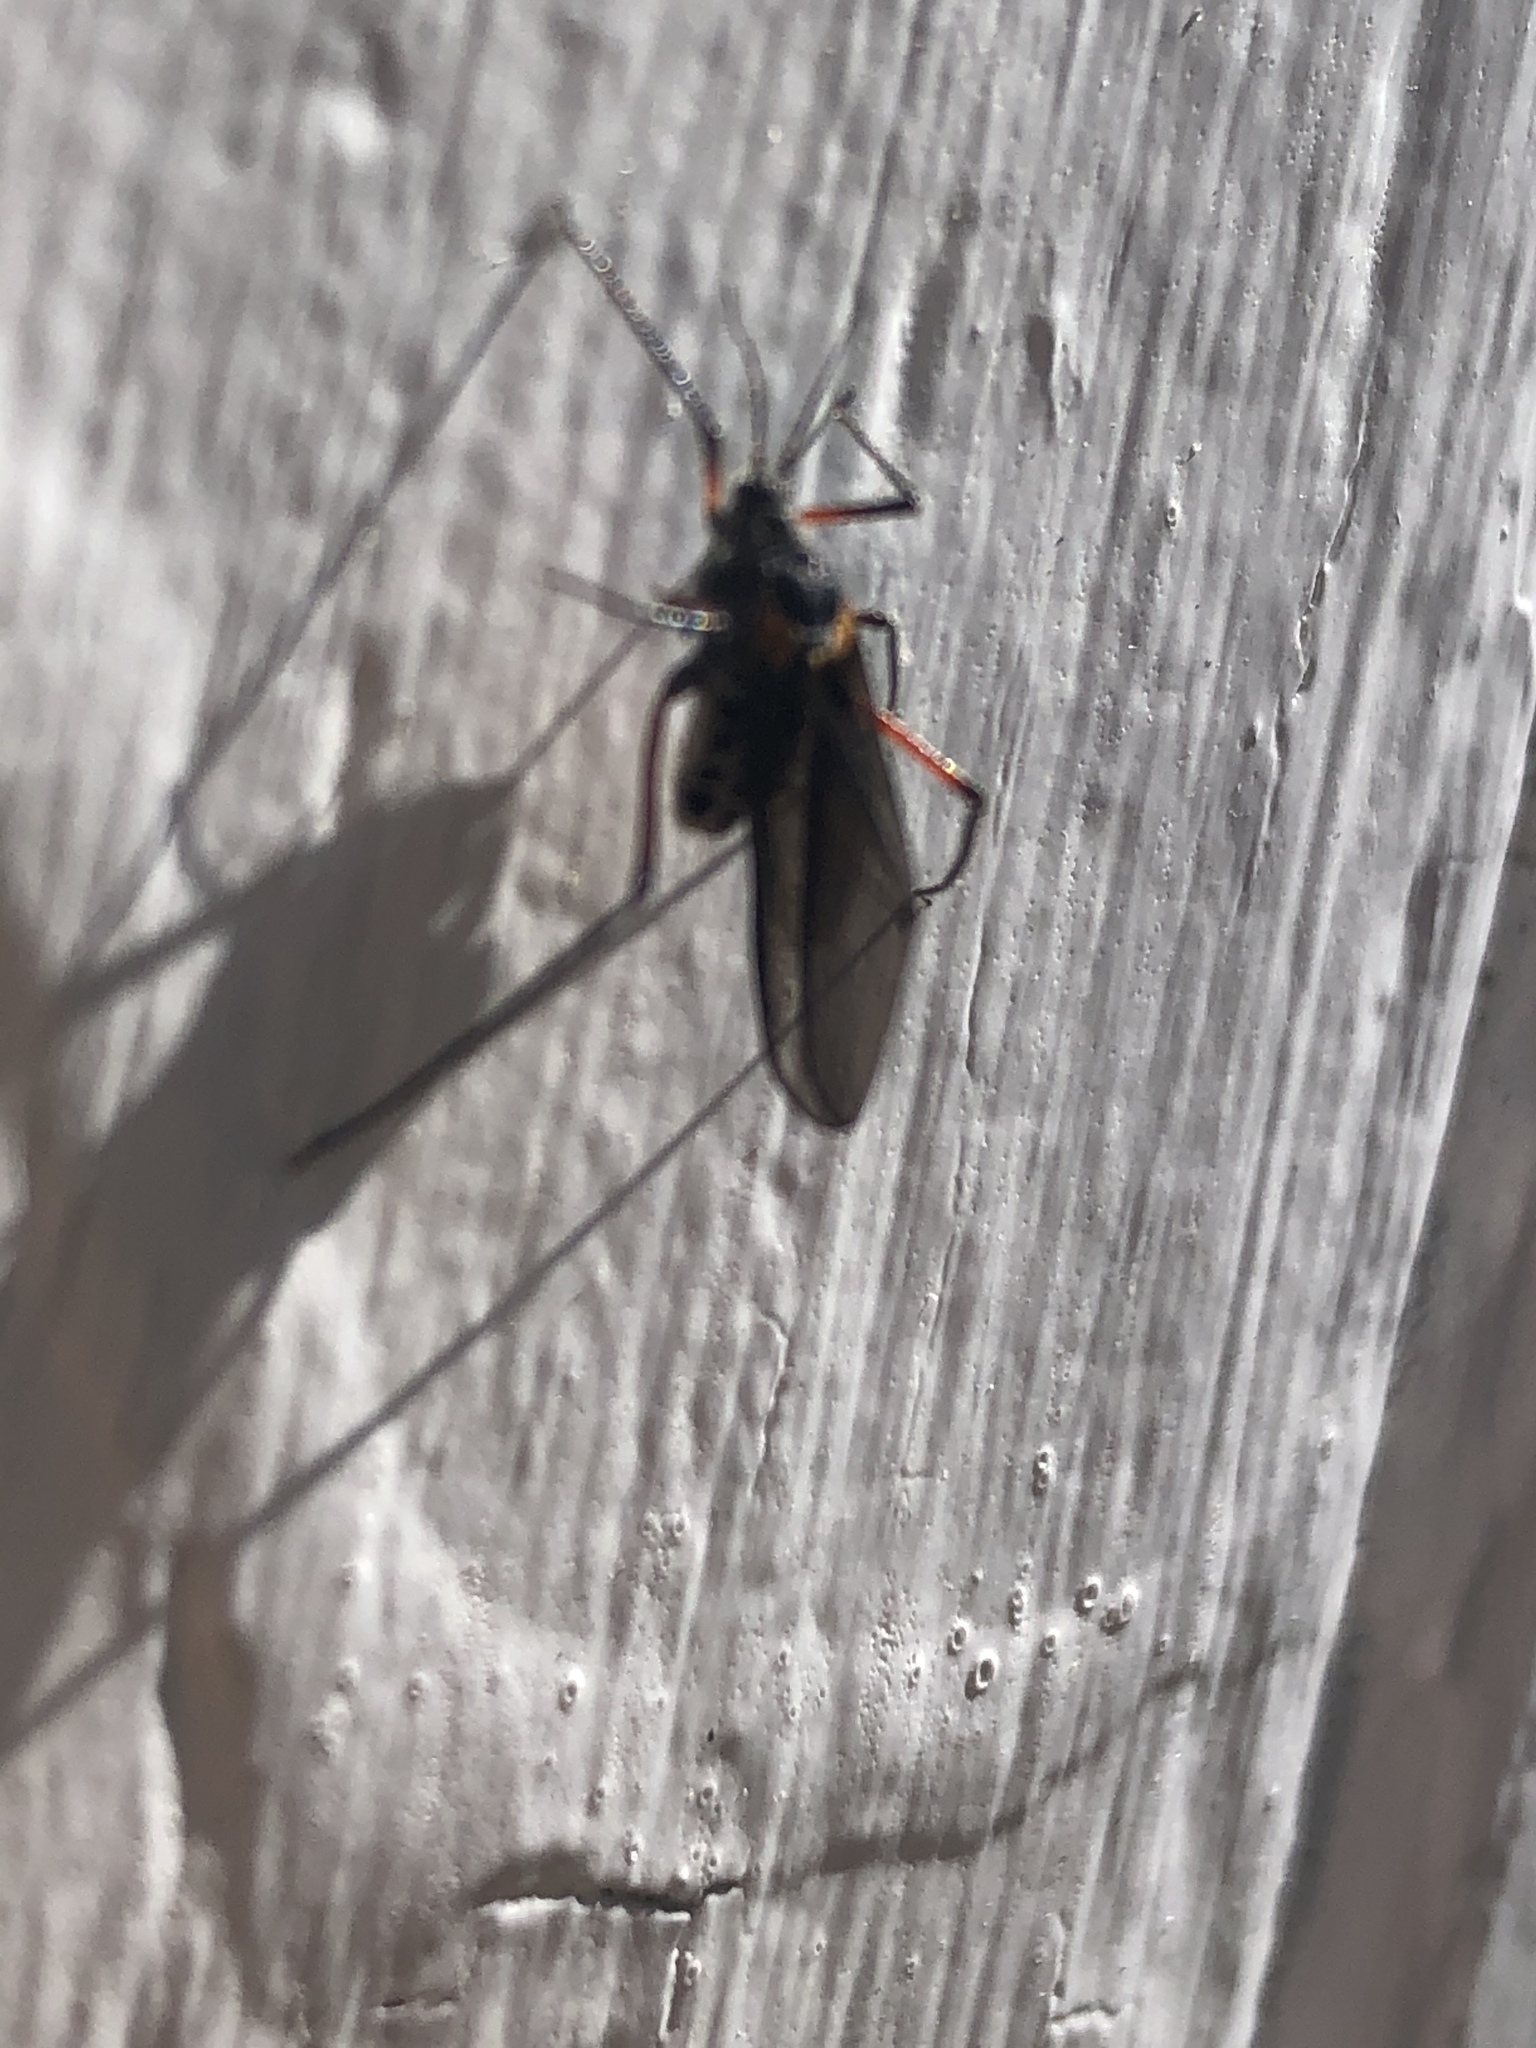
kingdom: Animalia
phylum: Arthropoda
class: Insecta
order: Hemiptera
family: Aphididae
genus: Longistigma
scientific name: Longistigma caryae
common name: Giant bark aphid
